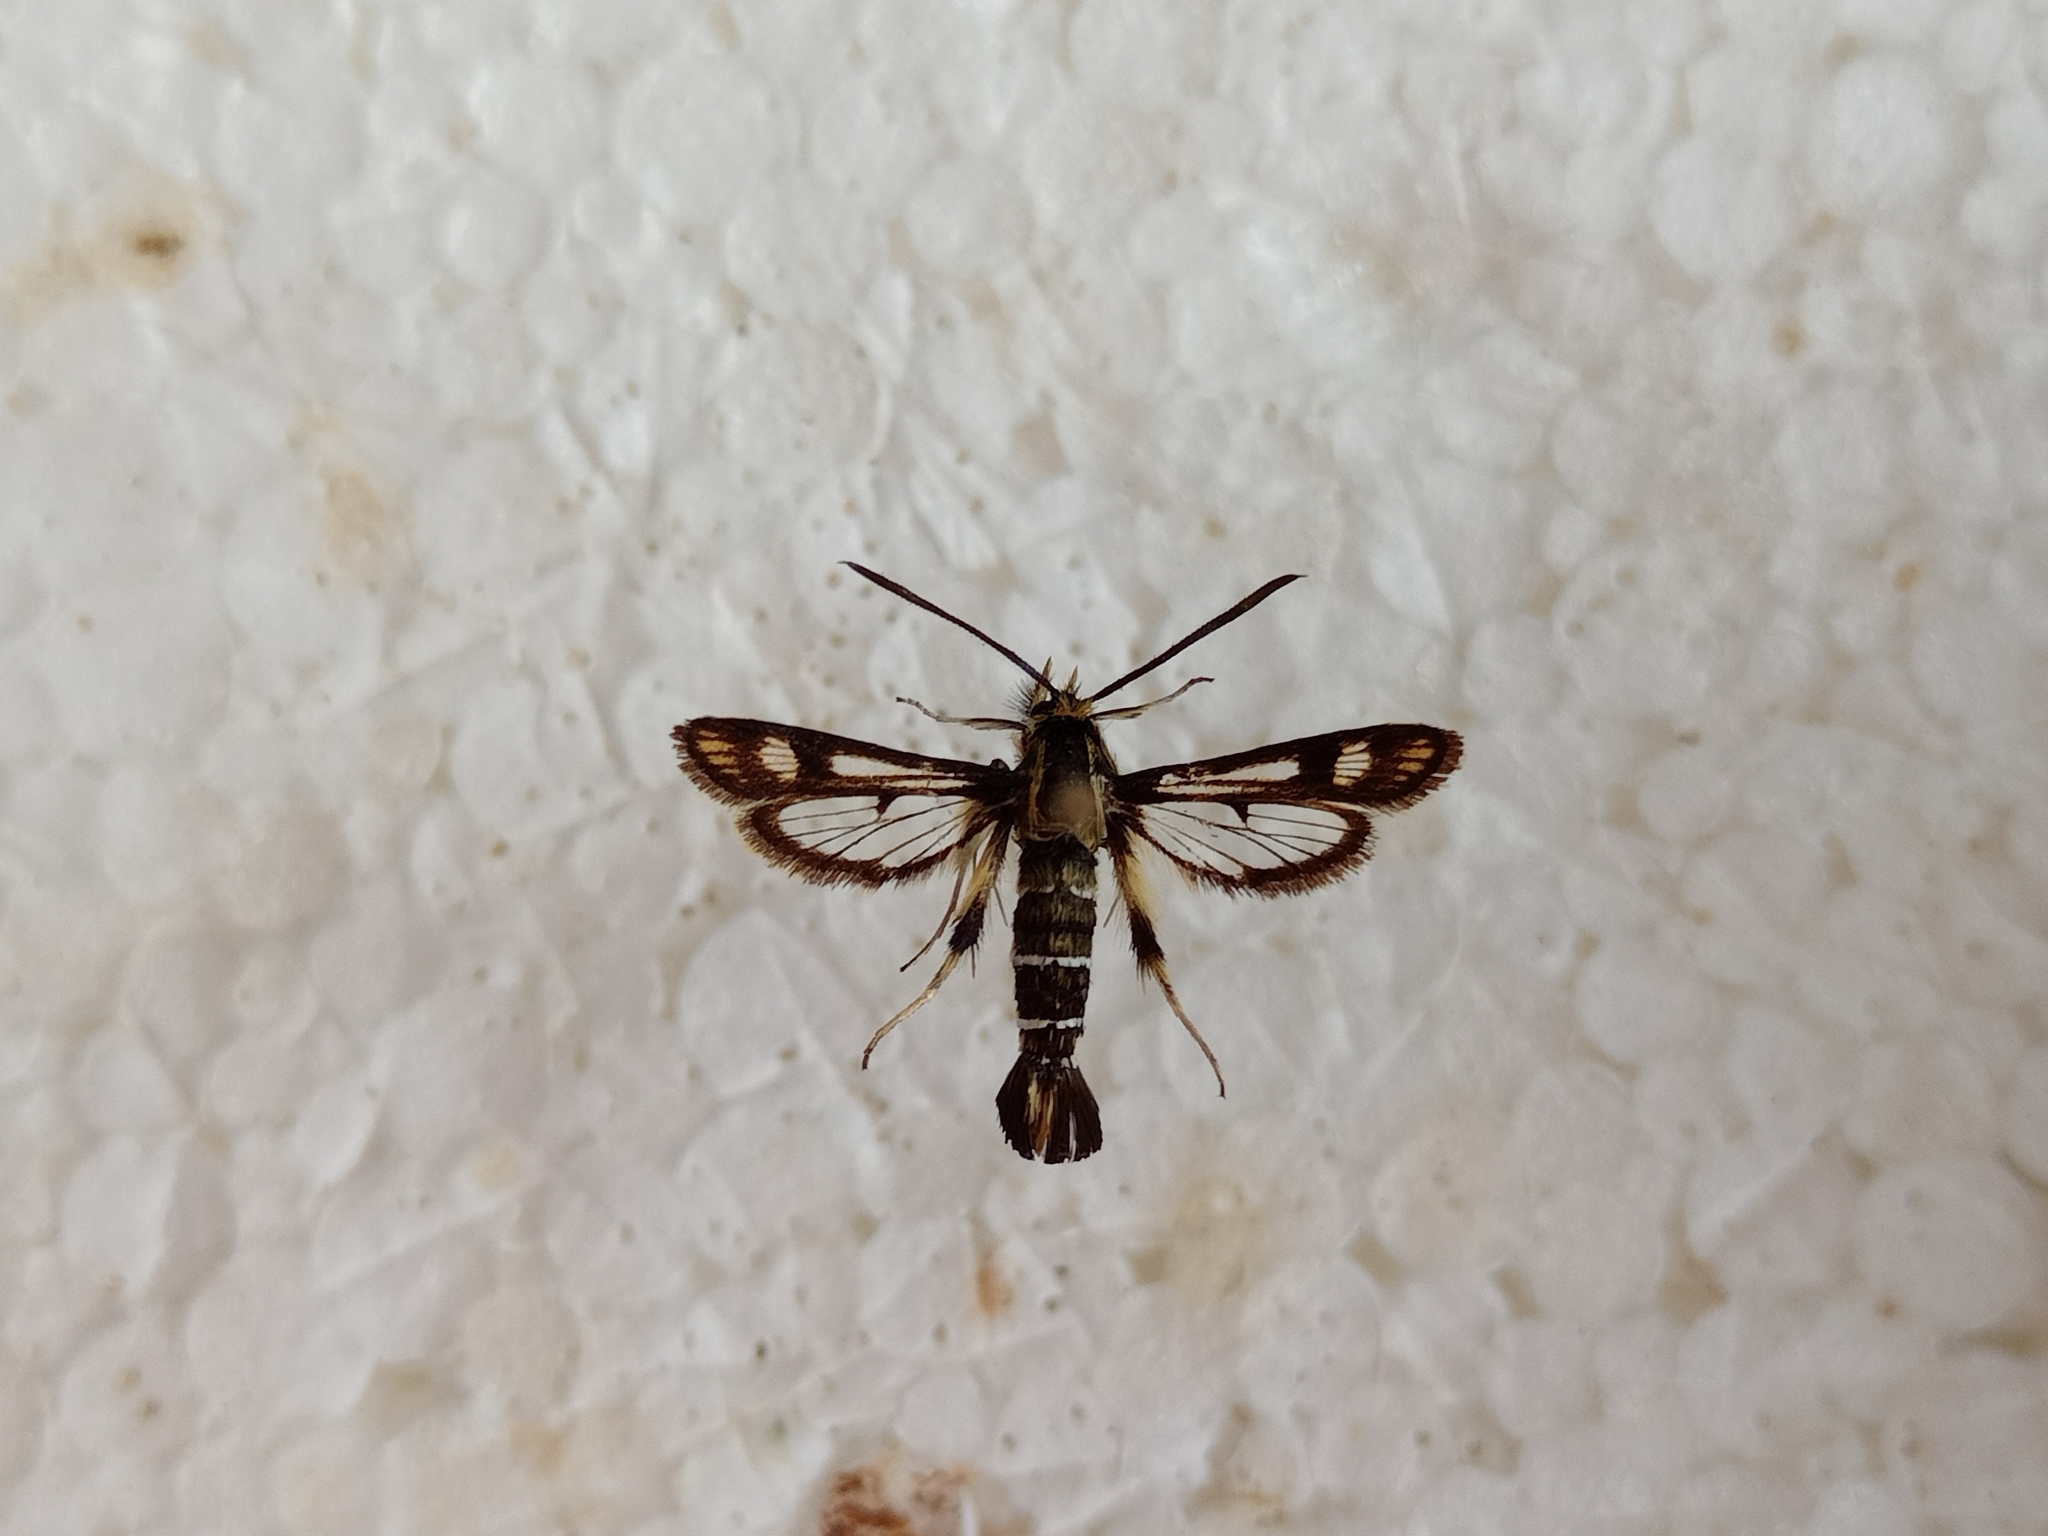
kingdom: Animalia
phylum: Arthropoda
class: Insecta
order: Lepidoptera
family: Sesiidae
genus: Pyropteron
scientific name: Pyropteron mannii
